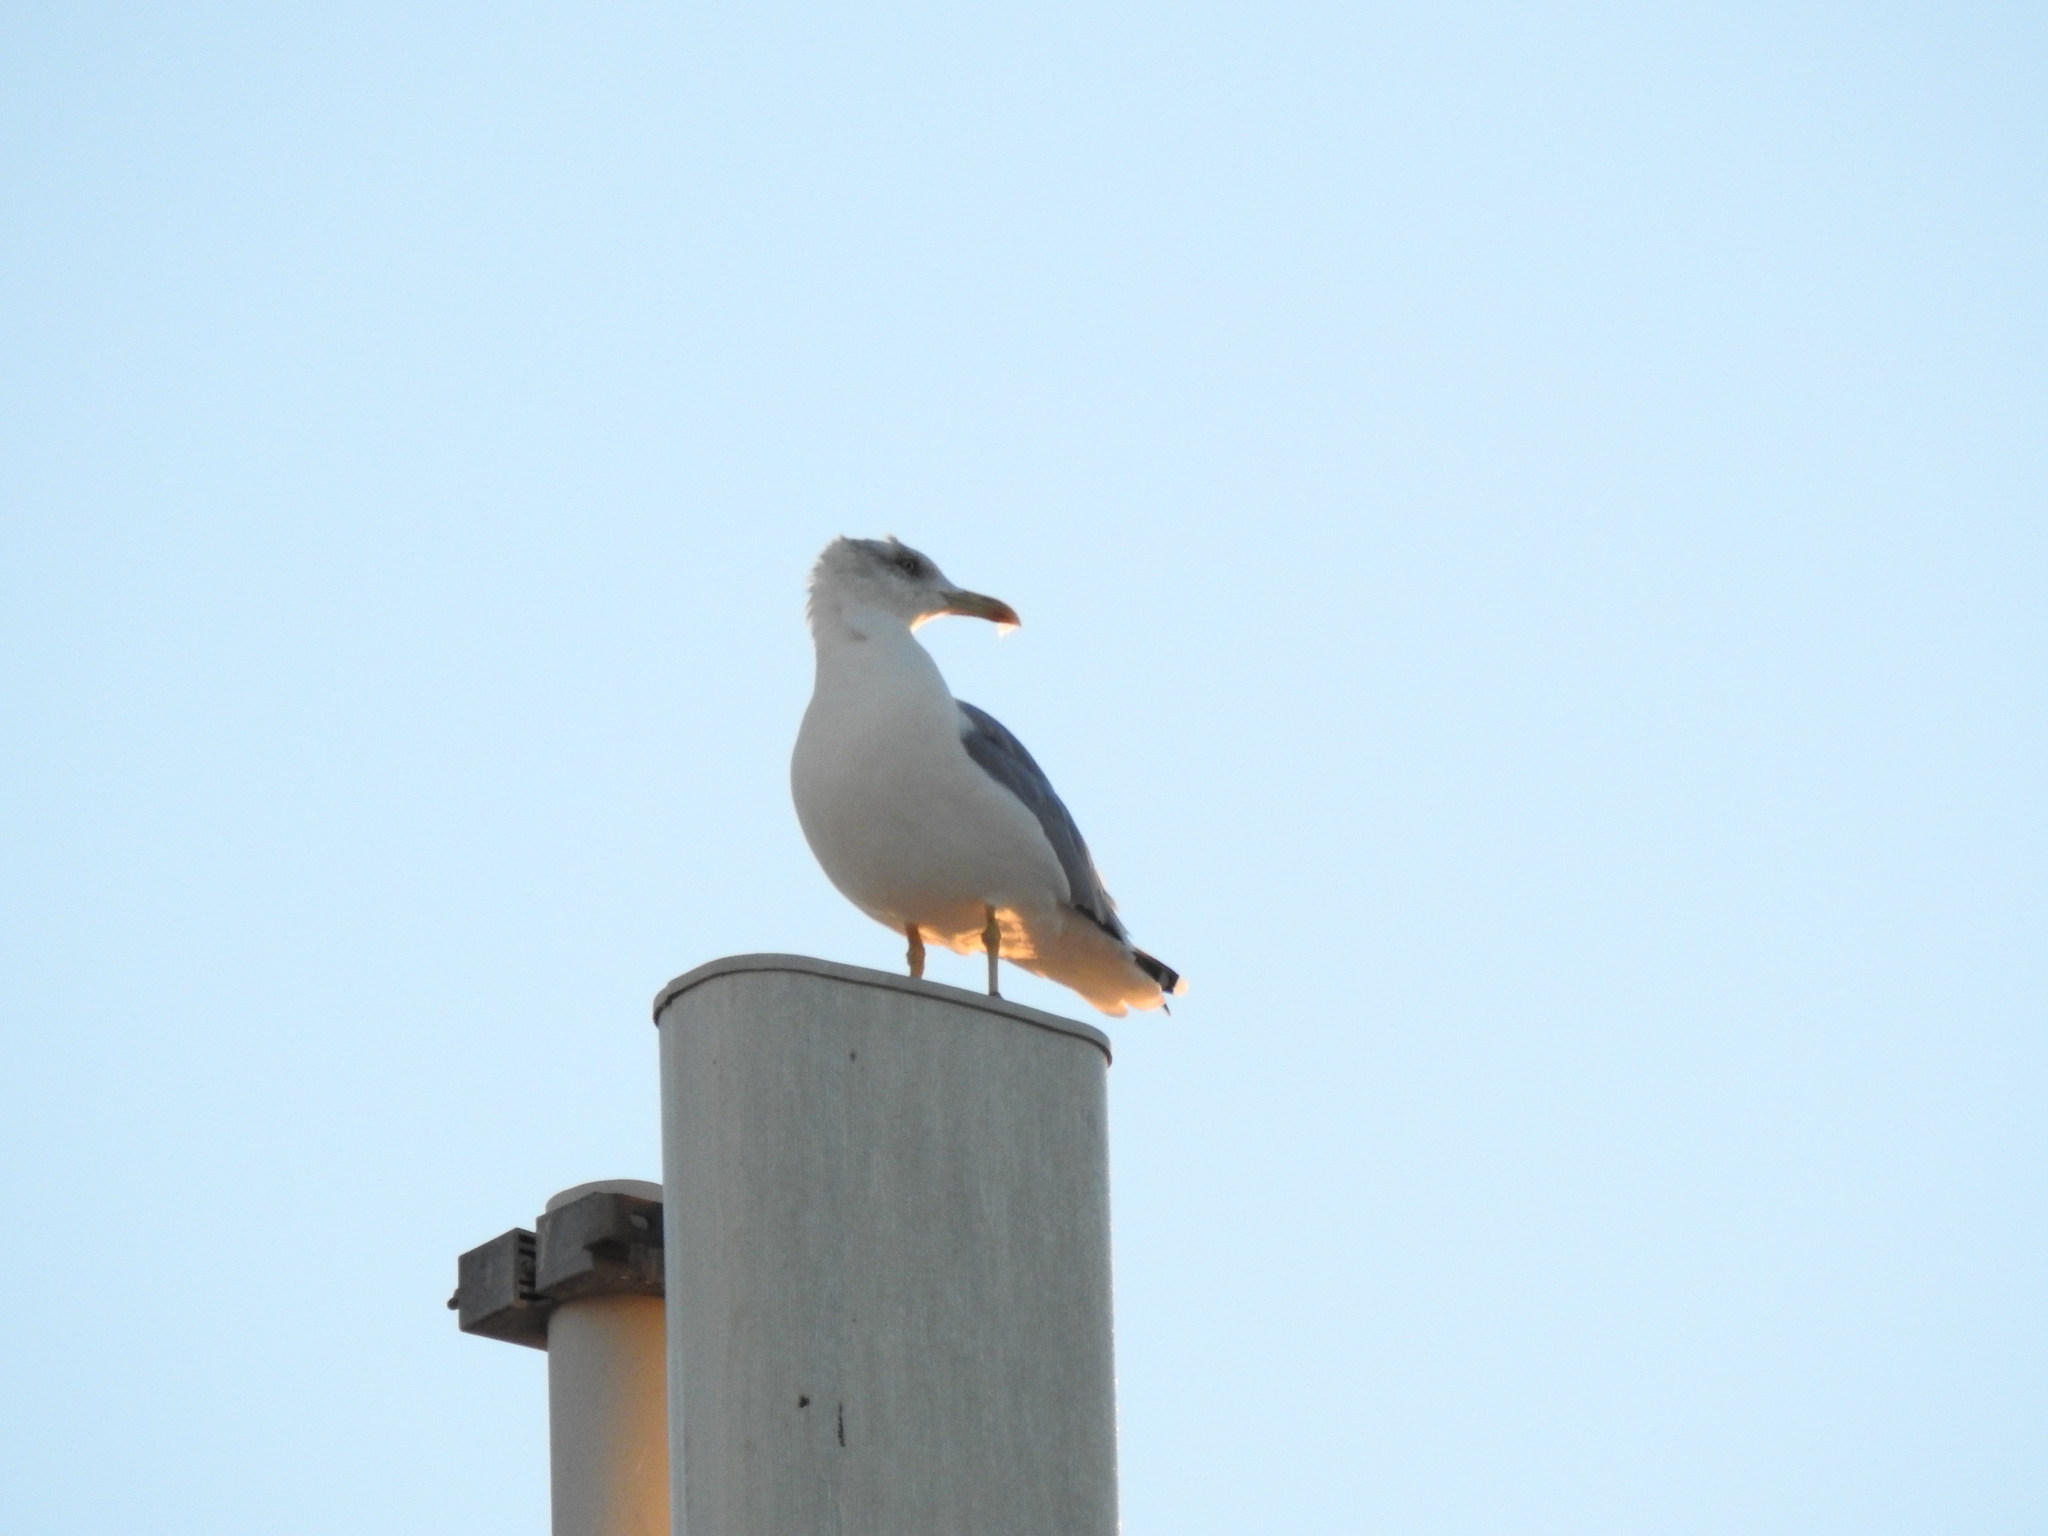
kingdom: Animalia
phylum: Chordata
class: Aves
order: Charadriiformes
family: Laridae
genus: Larus
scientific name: Larus michahellis
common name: Yellow-legged gull
